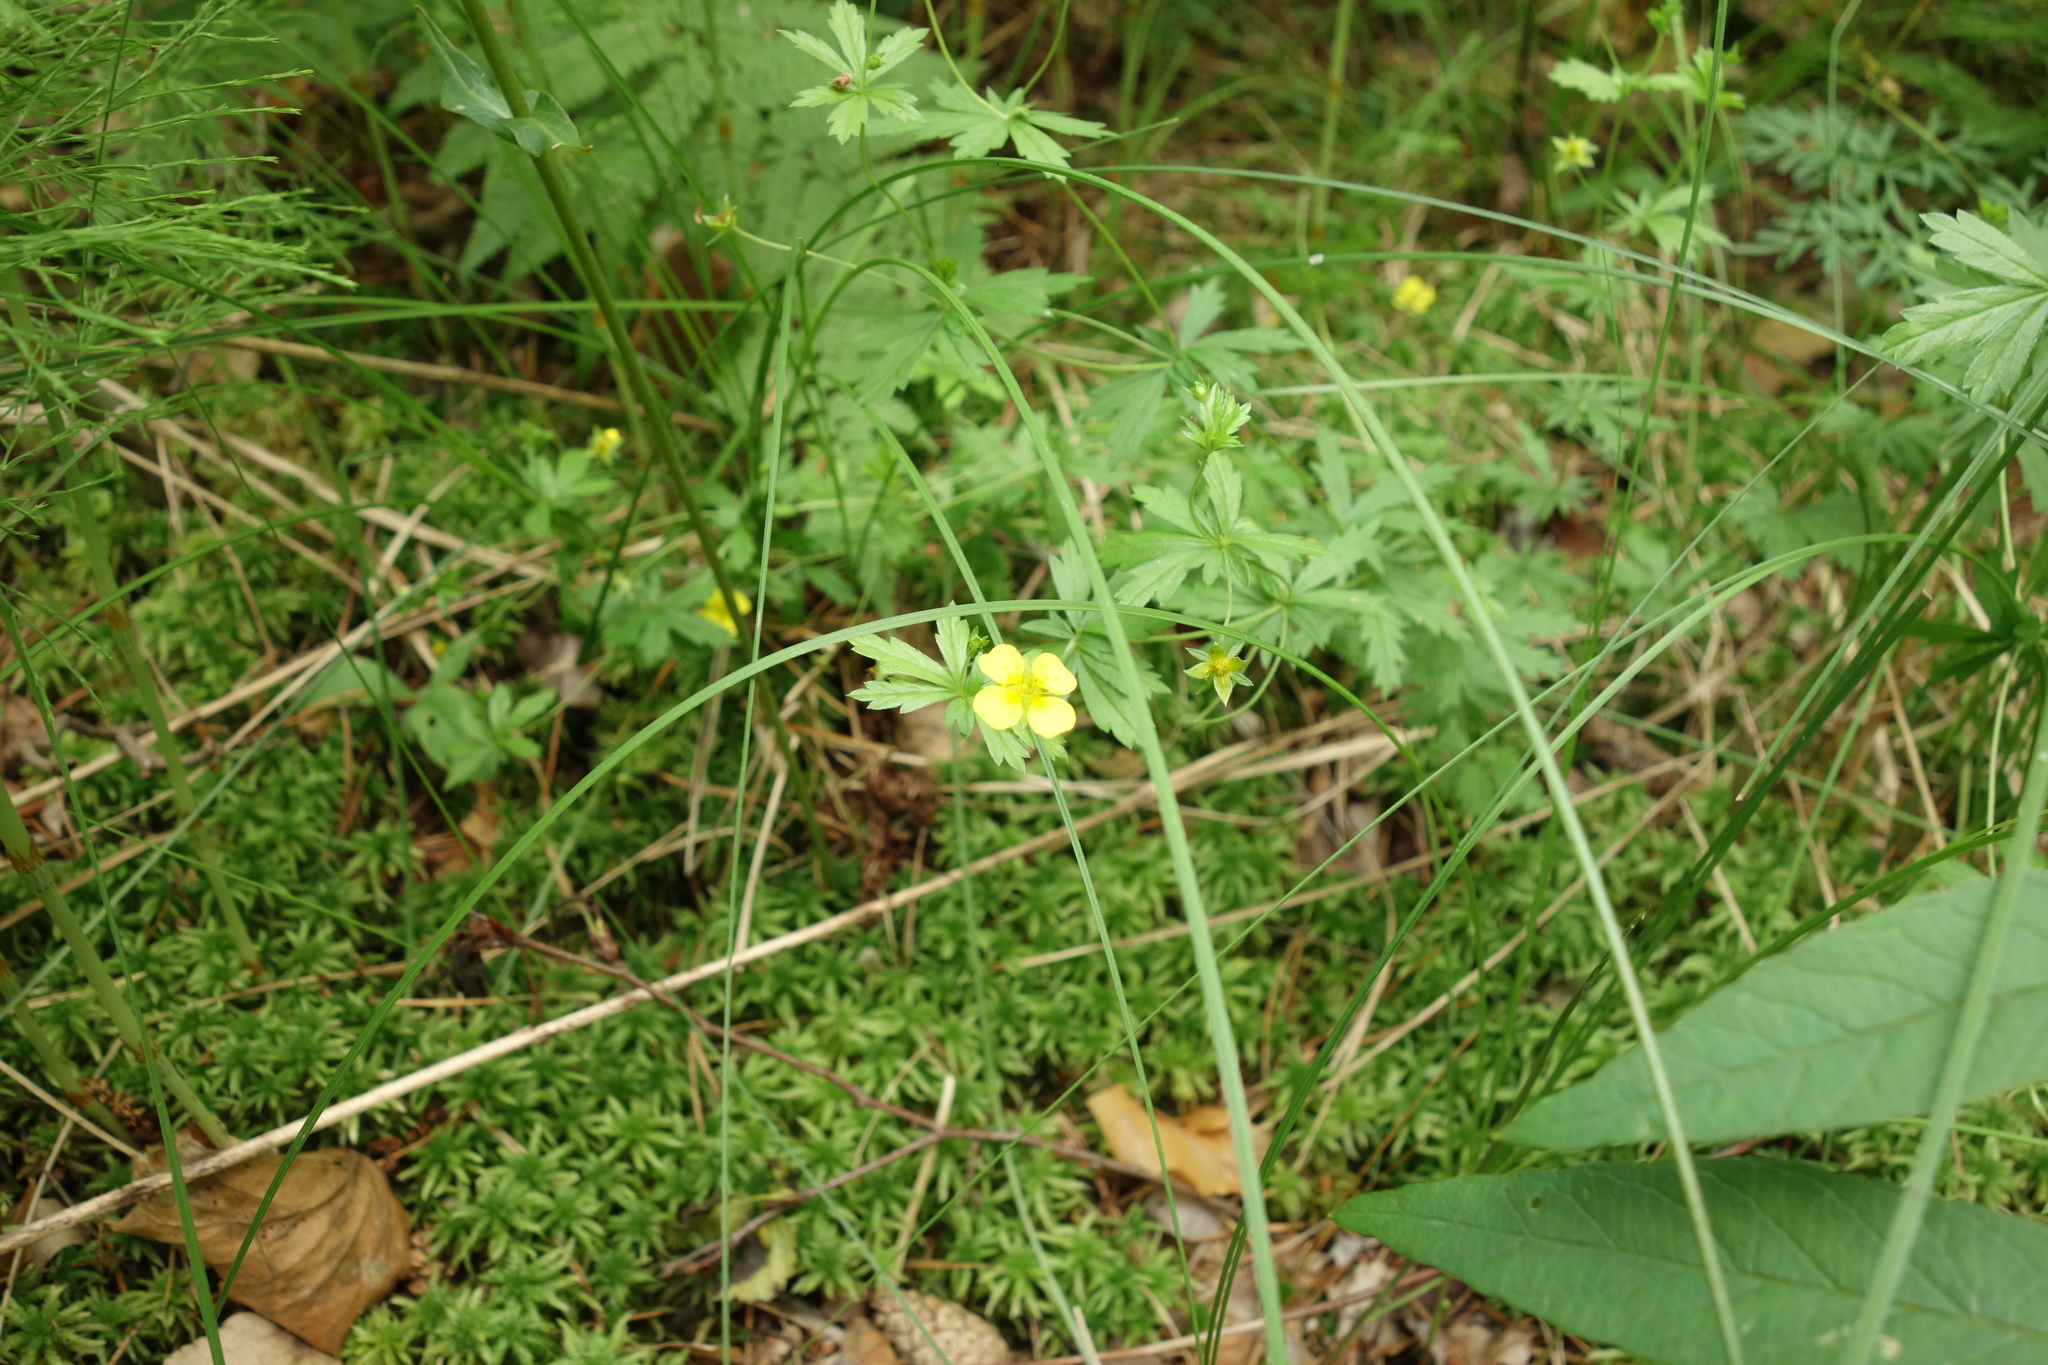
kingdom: Plantae
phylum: Tracheophyta
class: Magnoliopsida
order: Rosales
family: Rosaceae
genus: Potentilla
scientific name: Potentilla erecta
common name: Tormentil
